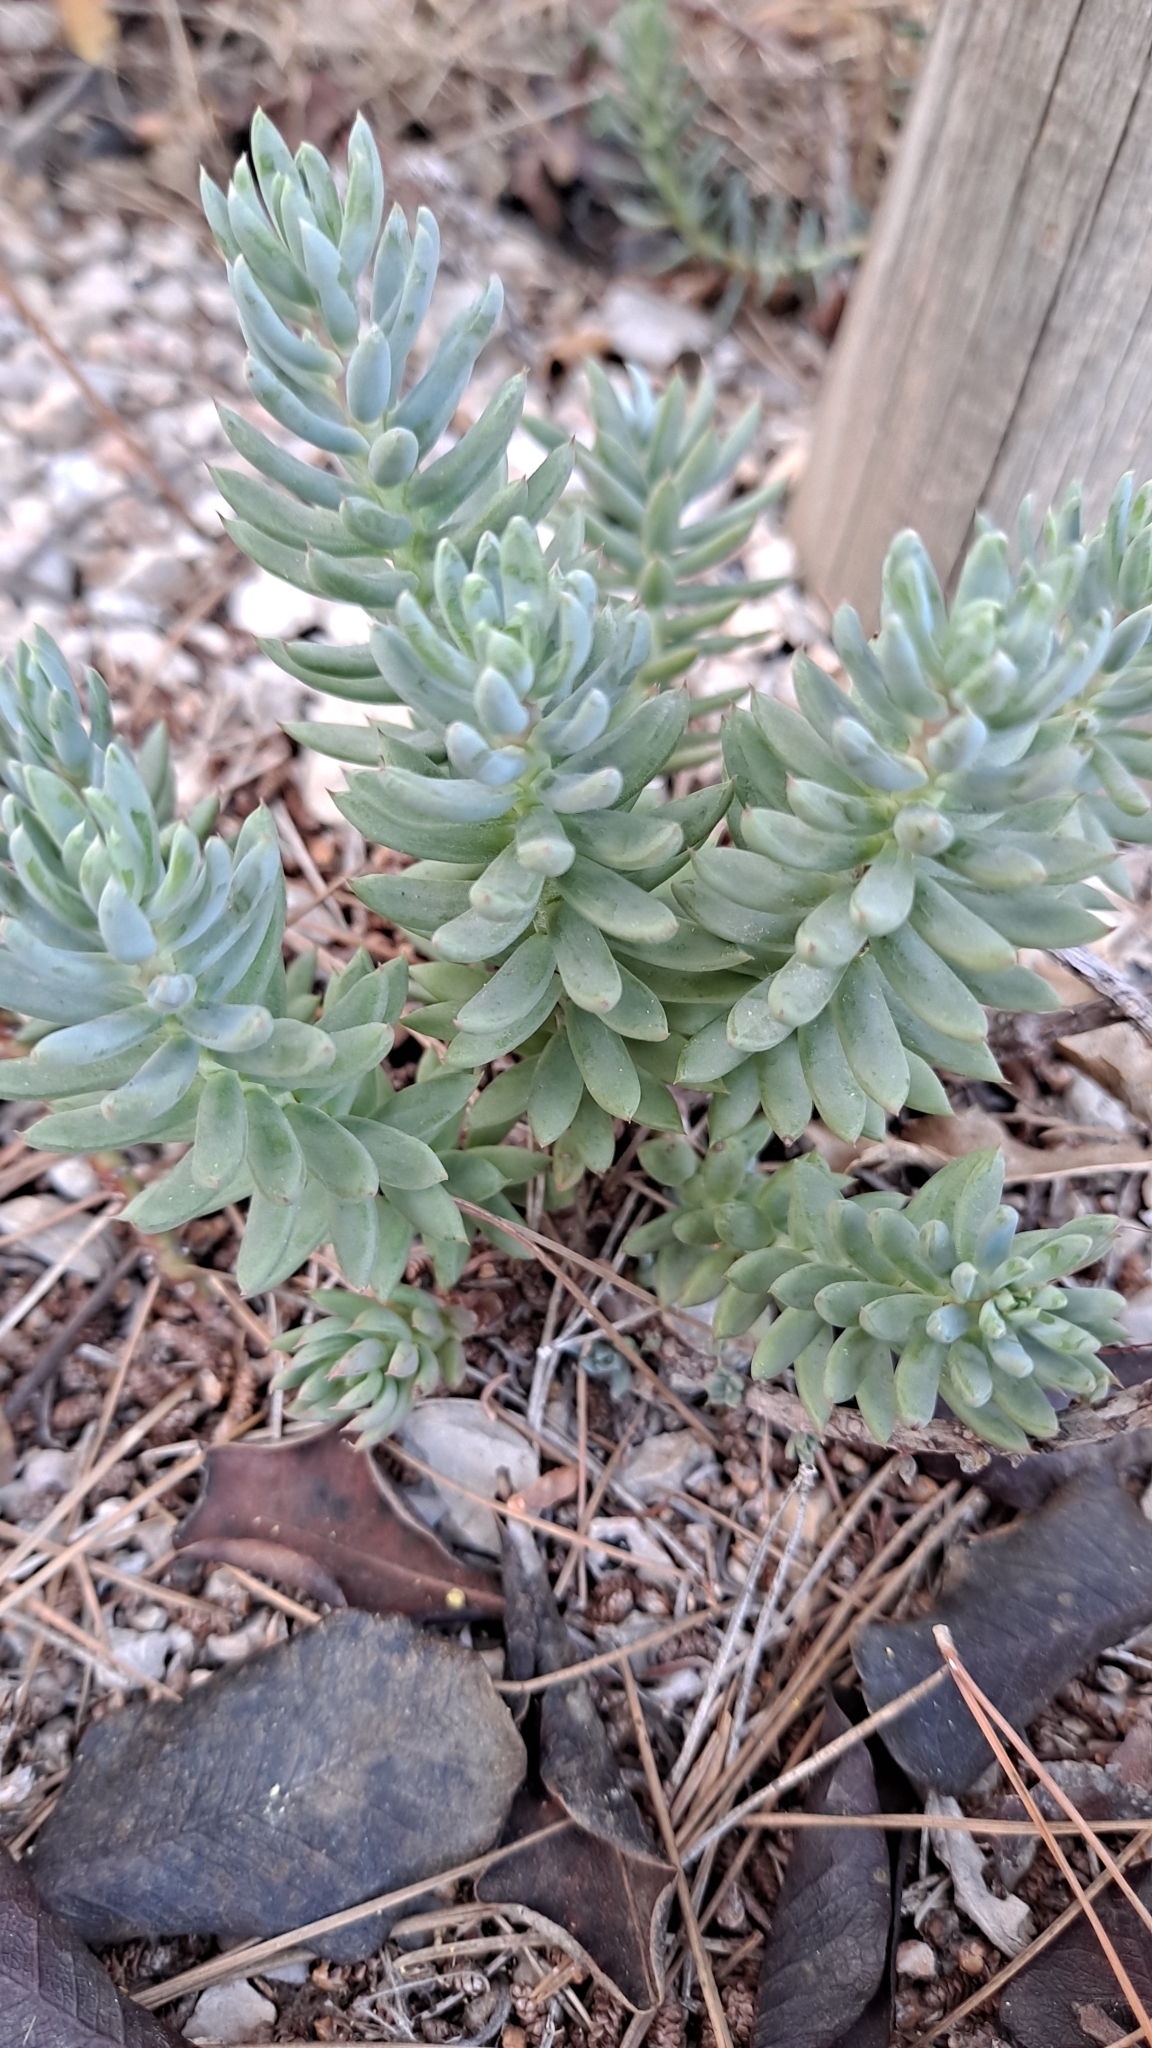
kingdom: Plantae
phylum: Tracheophyta
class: Magnoliopsida
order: Saxifragales
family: Crassulaceae
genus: Petrosedum
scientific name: Petrosedum sediforme
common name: Pale stonecrop
